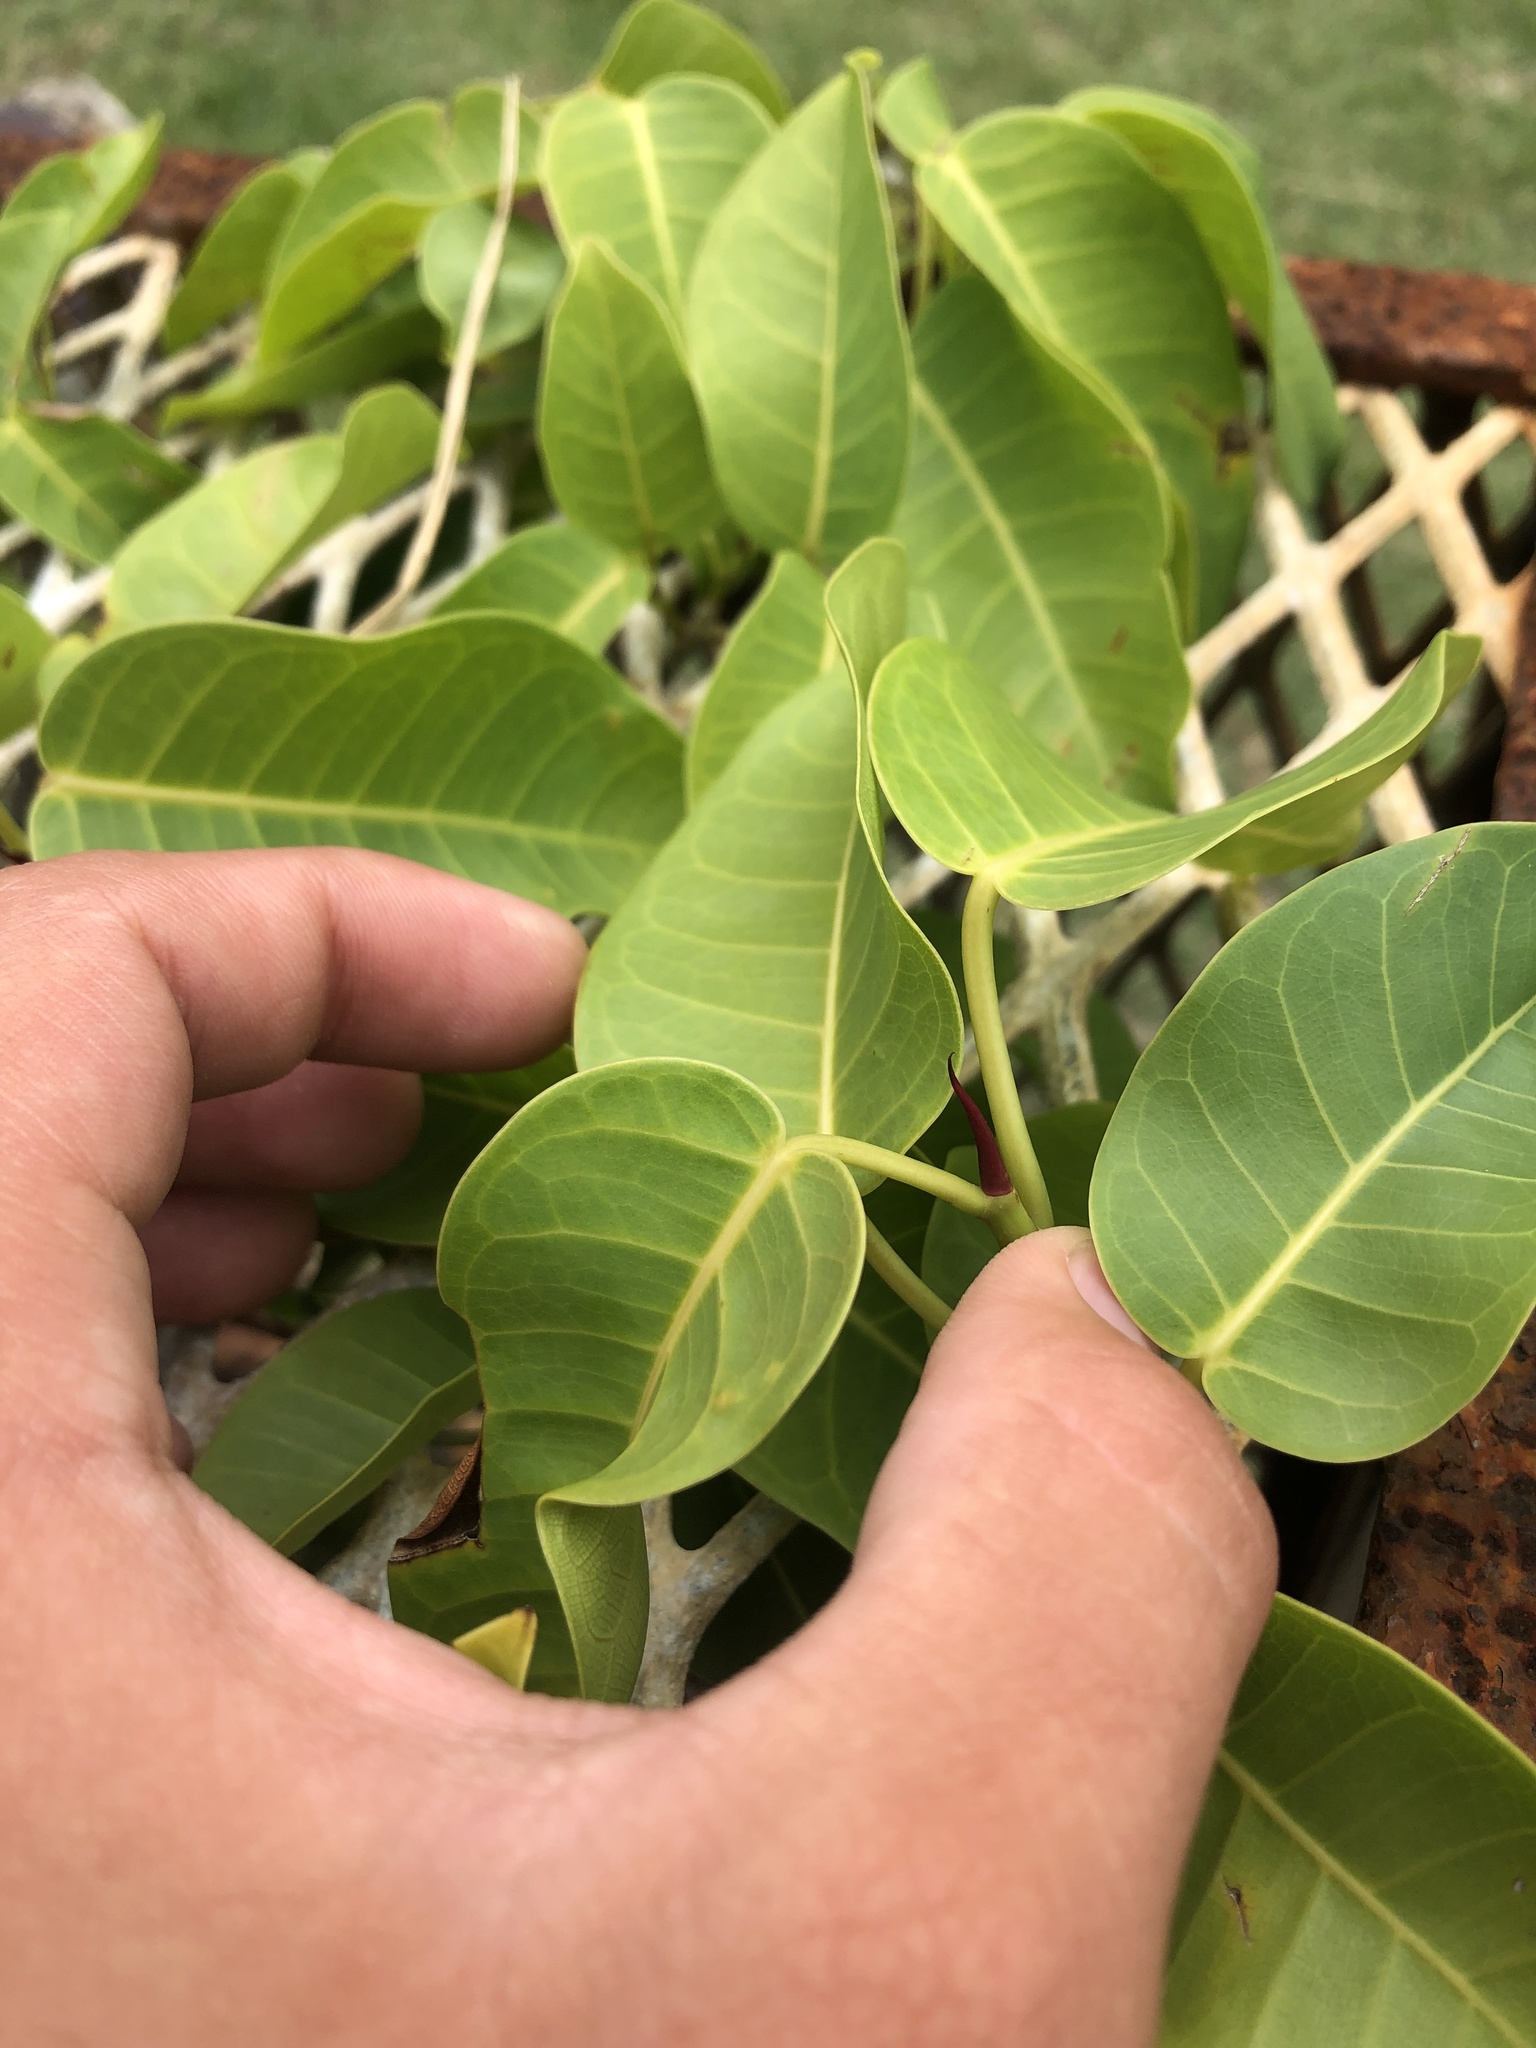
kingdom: Plantae
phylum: Tracheophyta
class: Magnoliopsida
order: Rosales
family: Moraceae
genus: Ficus
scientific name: Ficus citrifolia
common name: Strangler fig
